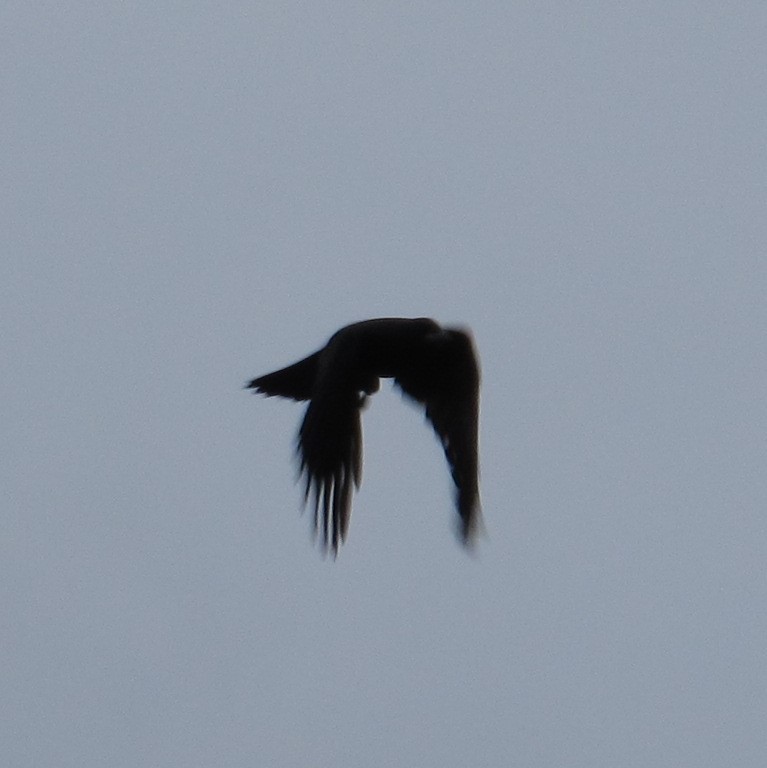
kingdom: Animalia
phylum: Chordata
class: Aves
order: Passeriformes
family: Corvidae
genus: Corvus
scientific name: Corvus
